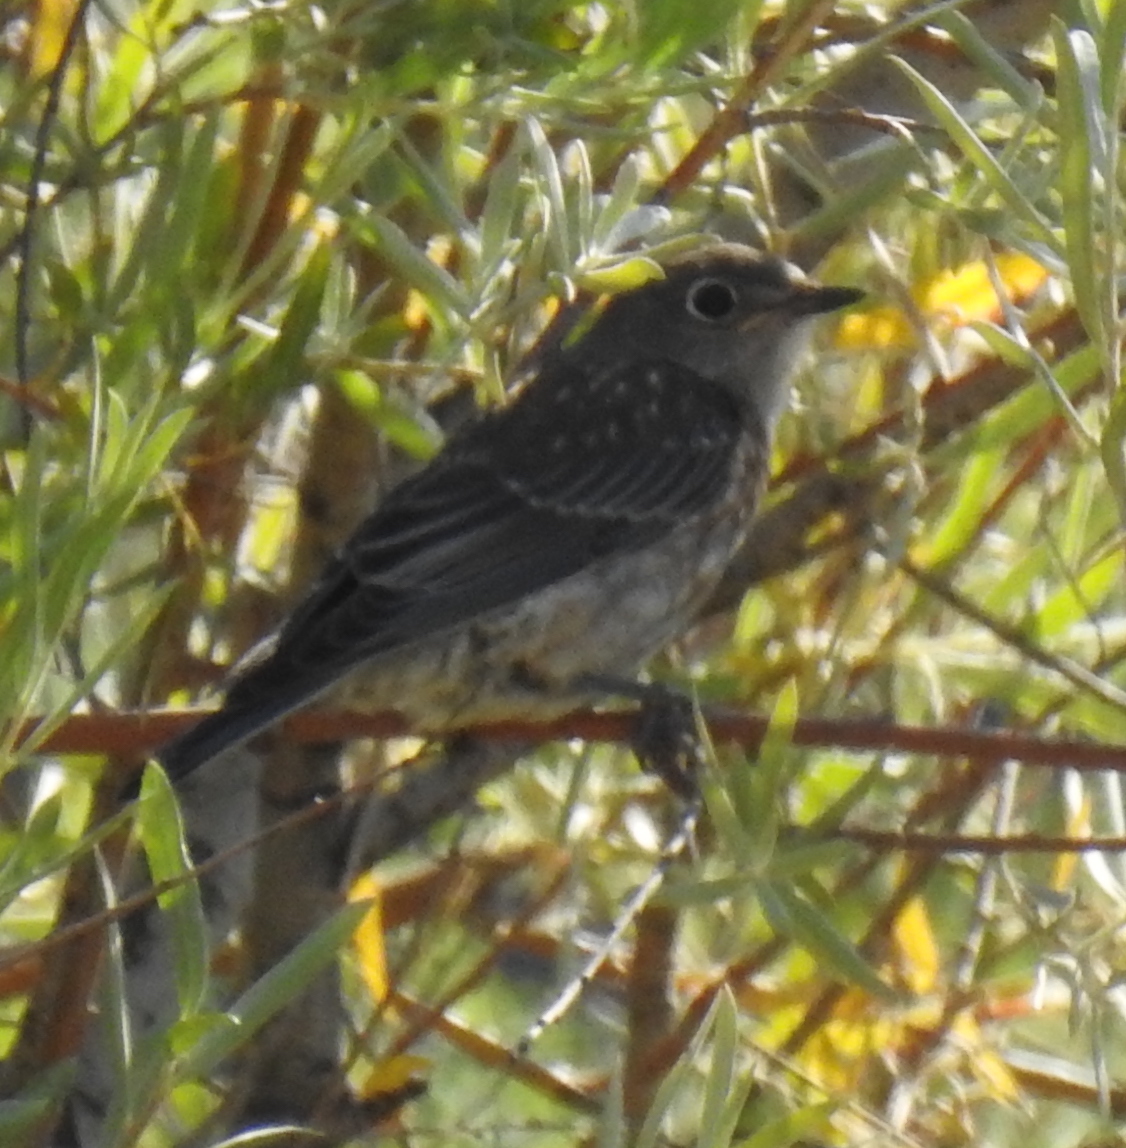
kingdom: Animalia
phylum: Chordata
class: Aves
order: Passeriformes
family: Turdidae
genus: Sialia
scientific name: Sialia mexicana
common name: Western bluebird
